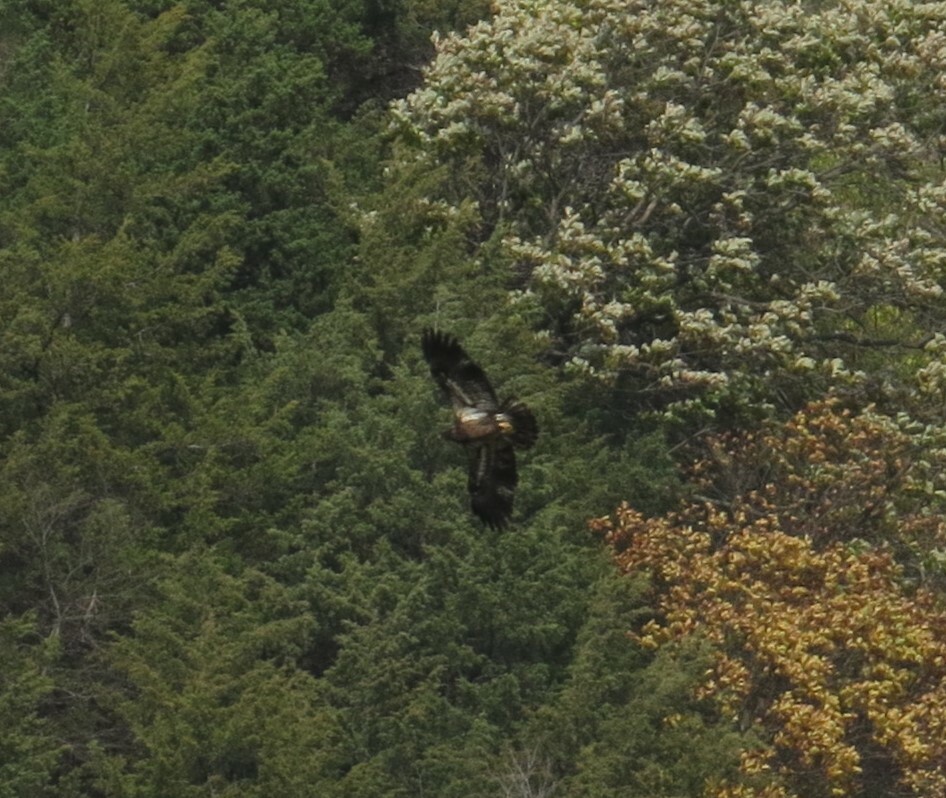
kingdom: Animalia
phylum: Chordata
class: Aves
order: Accipitriformes
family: Accipitridae
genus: Haliaeetus
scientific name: Haliaeetus leucocephalus
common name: Bald eagle
